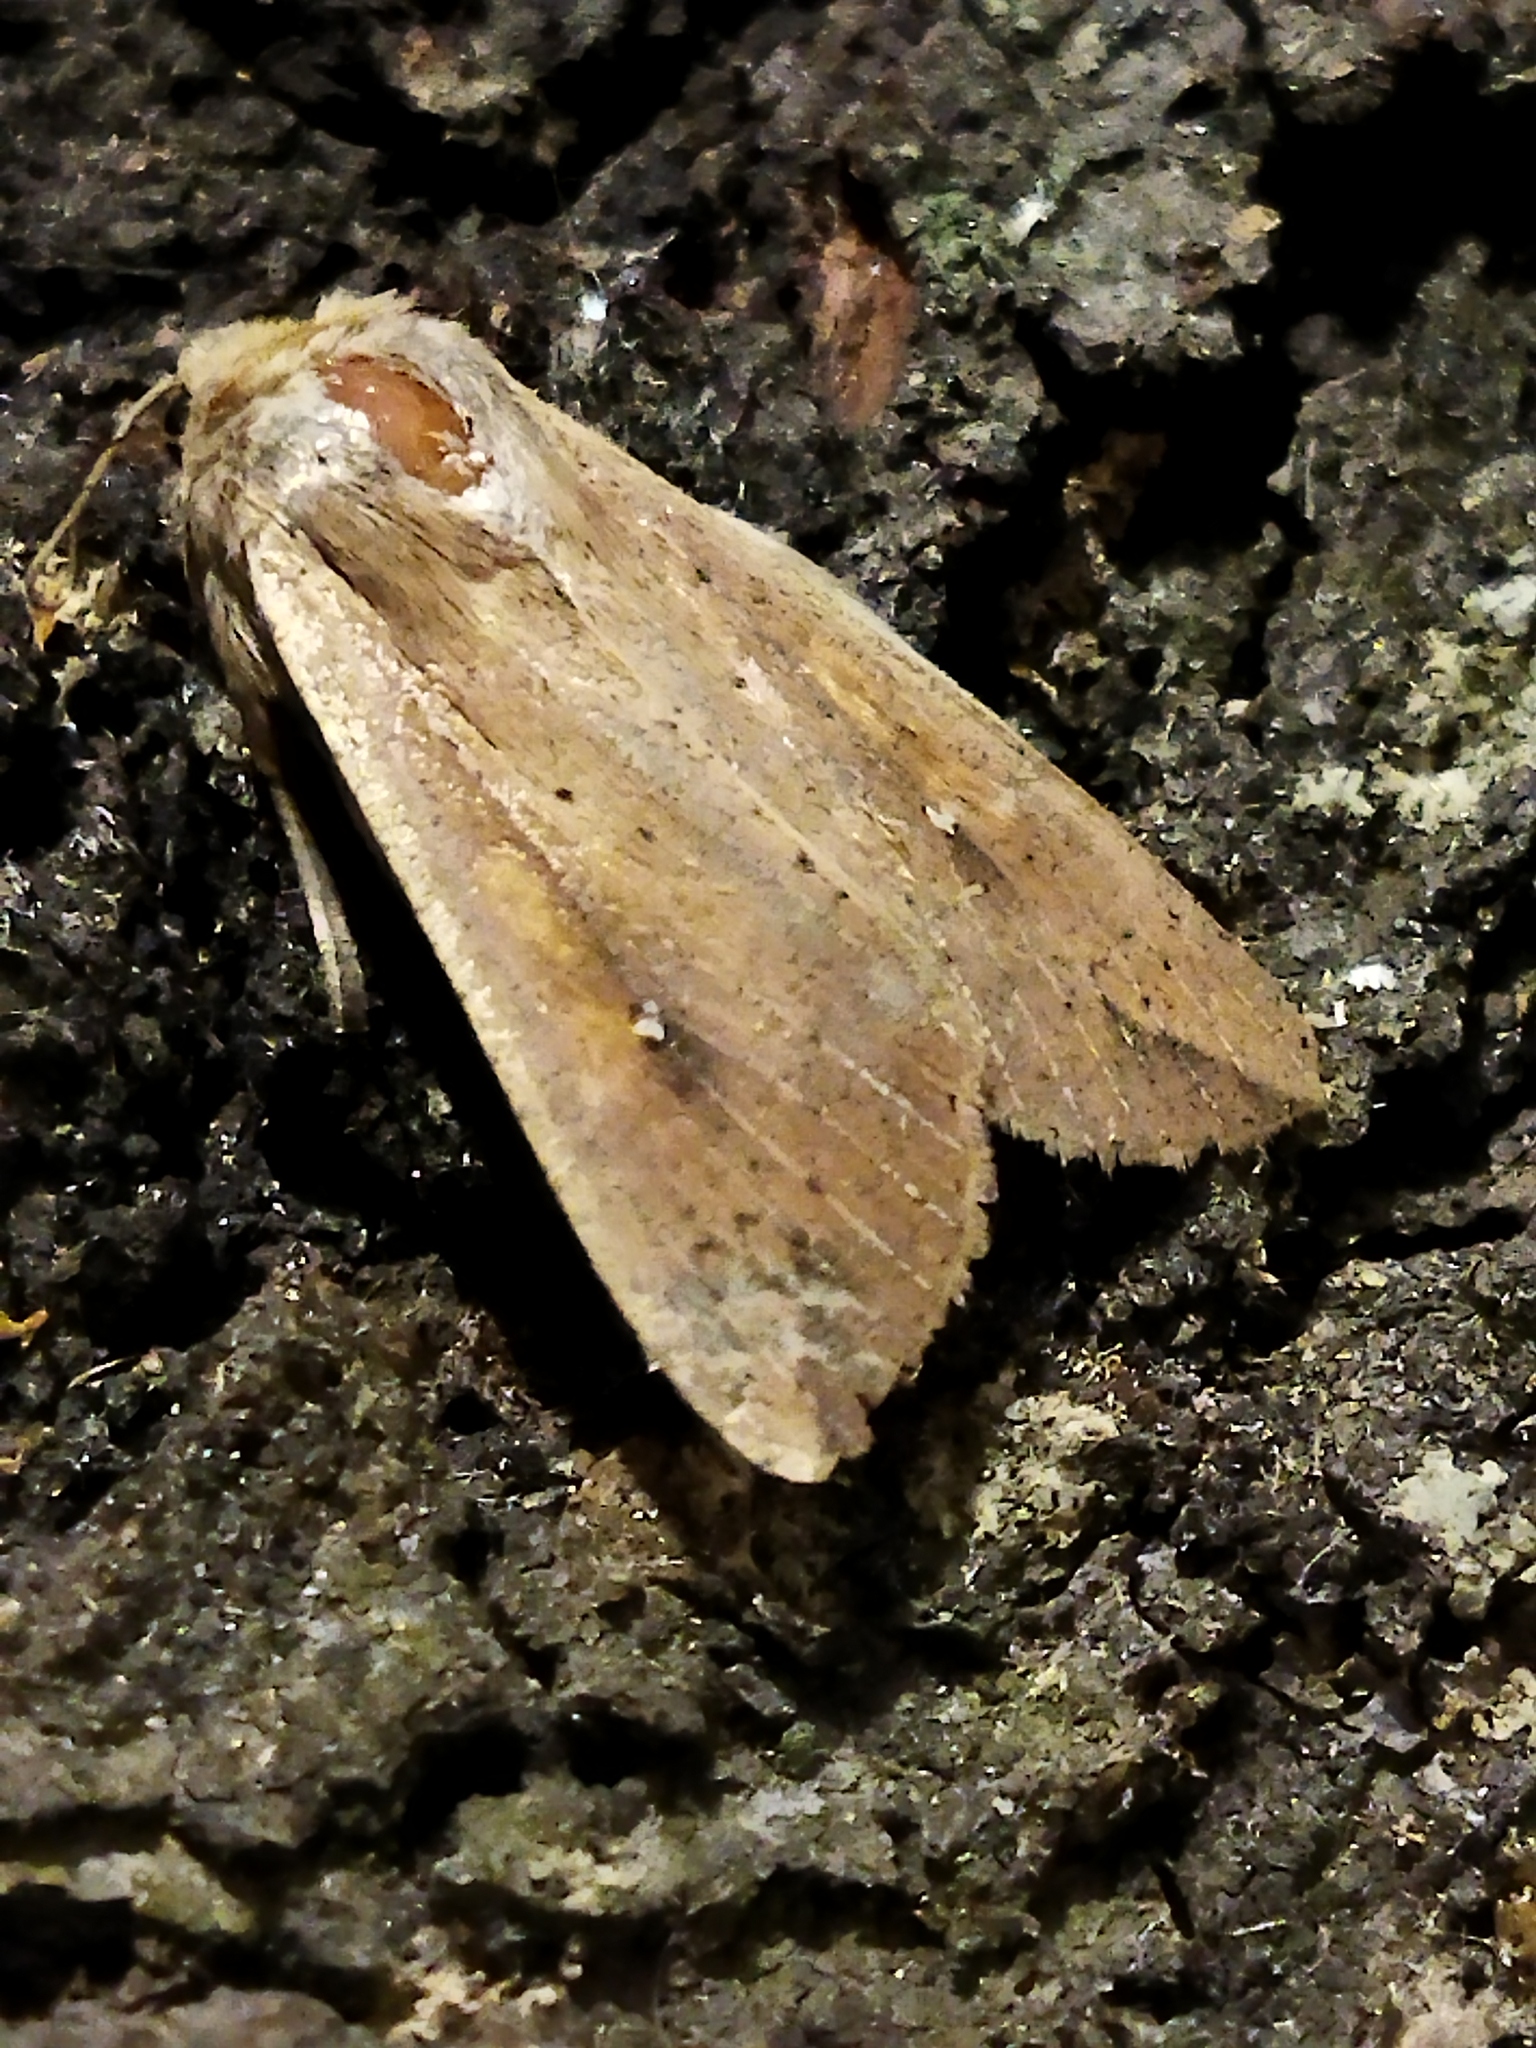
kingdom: Animalia
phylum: Arthropoda
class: Insecta
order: Lepidoptera
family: Noctuidae
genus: Mythimna
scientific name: Mythimna unipuncta
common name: White-speck
